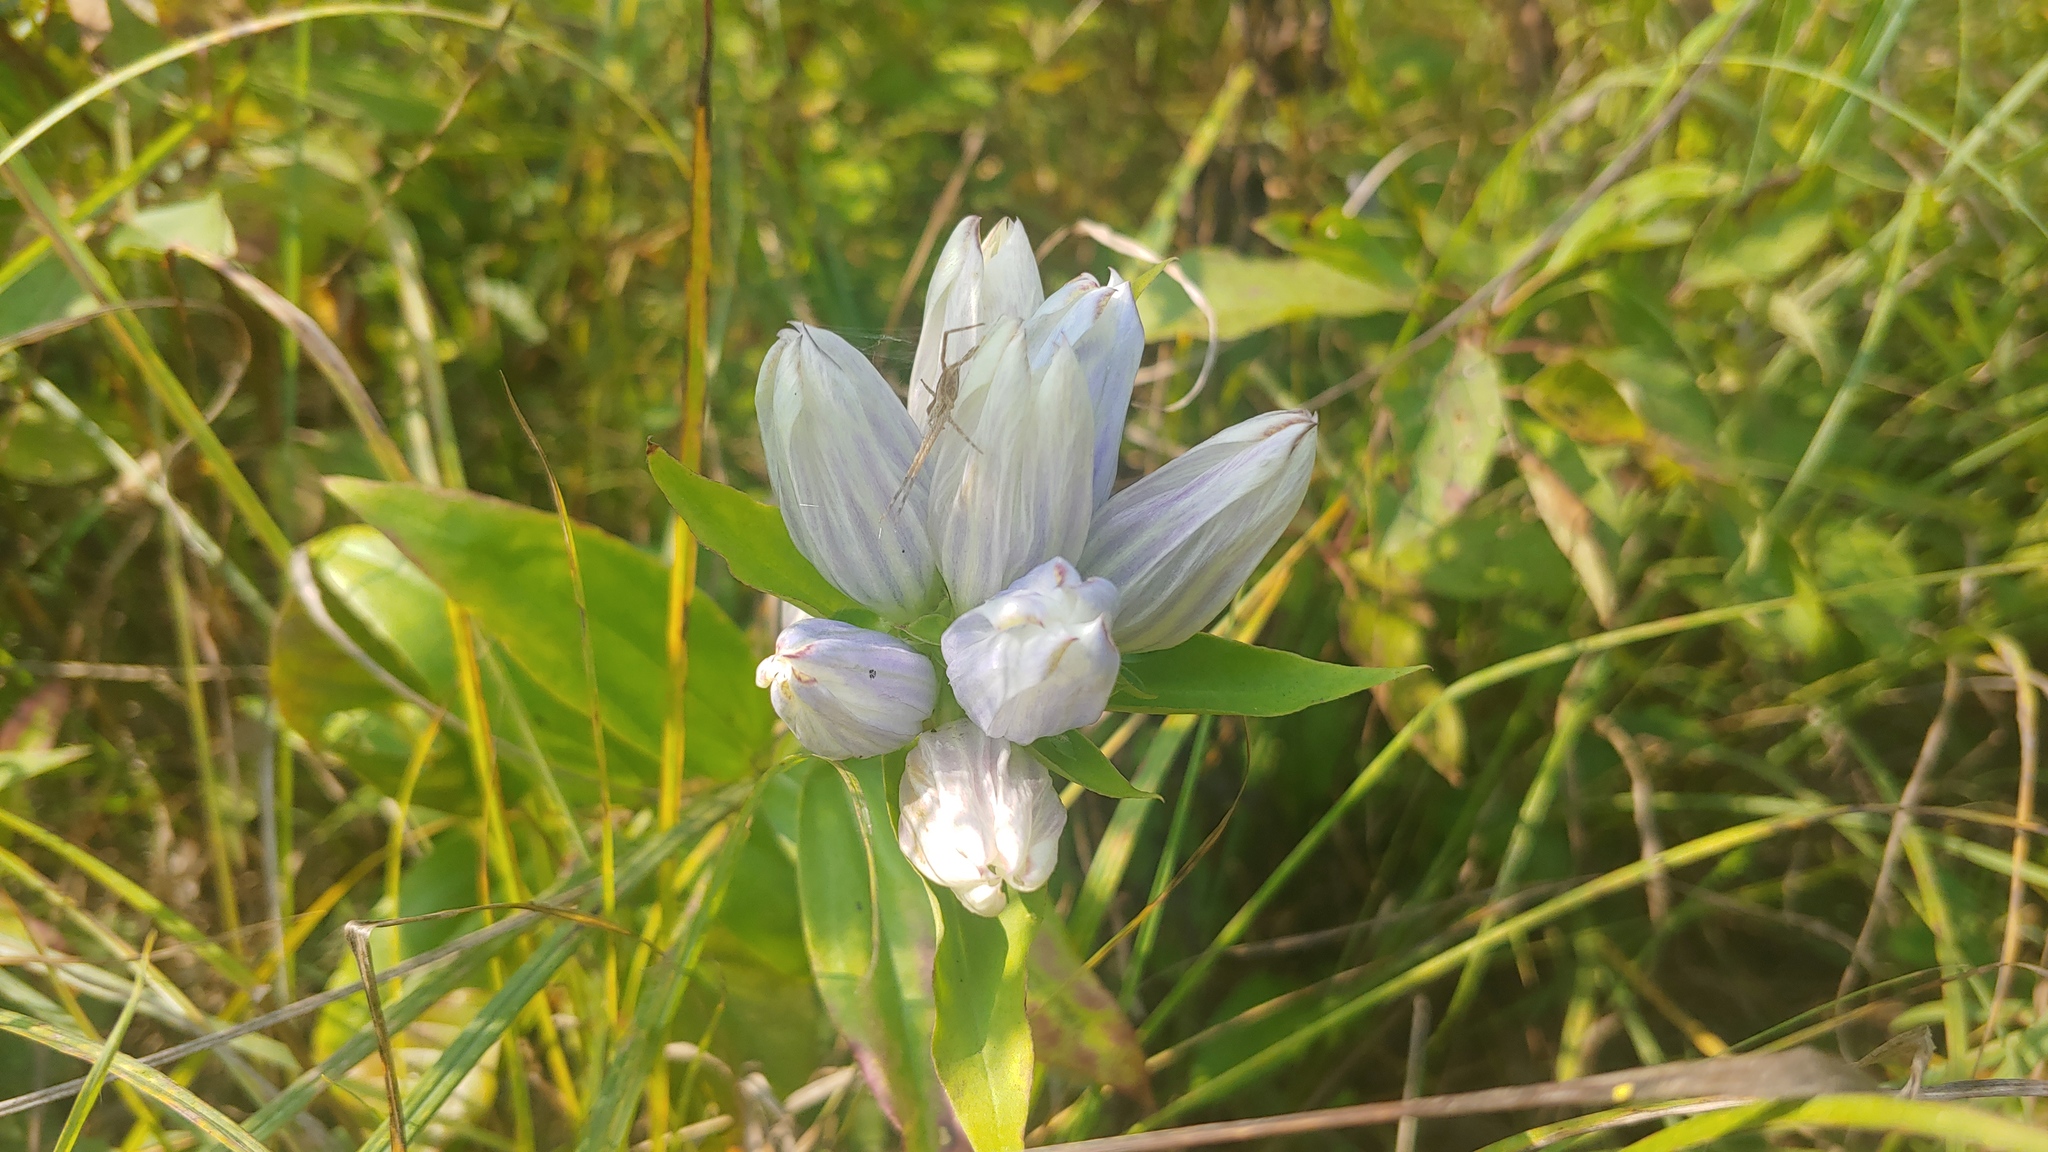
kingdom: Plantae
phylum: Tracheophyta
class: Magnoliopsida
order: Gentianales
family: Gentianaceae
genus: Gentiana
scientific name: Gentiana pallidocyanea
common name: Hybrid bottle gentian
